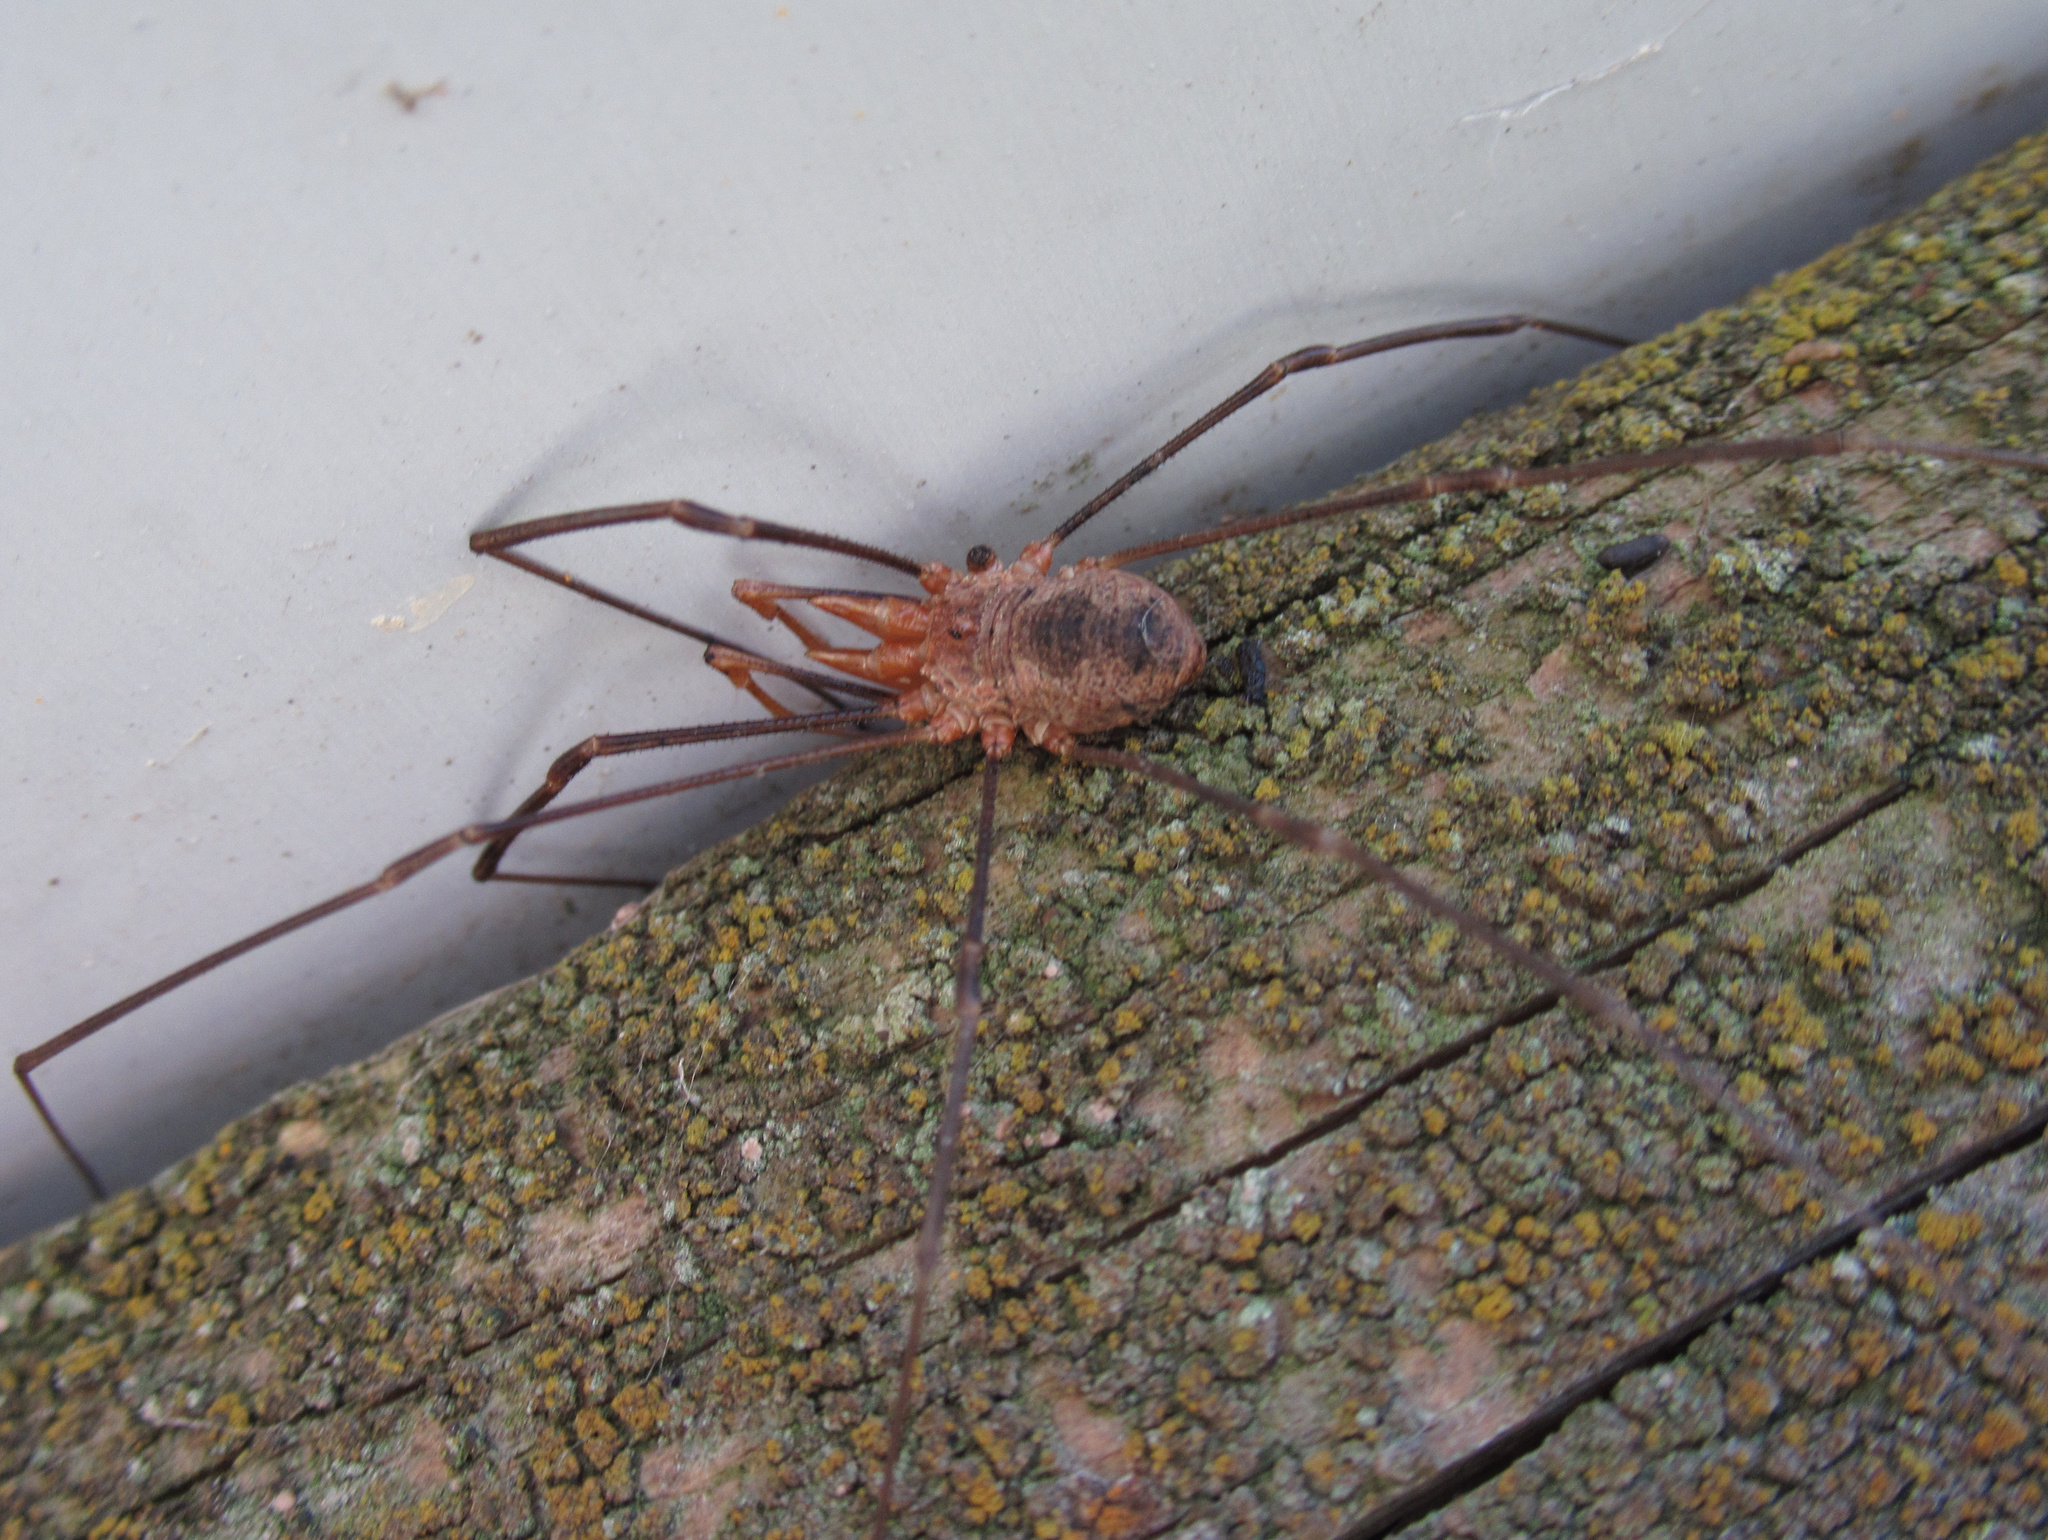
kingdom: Animalia
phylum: Arthropoda
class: Arachnida
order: Opiliones
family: Phalangiidae
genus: Phalangium
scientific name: Phalangium opilio
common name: Daddy longleg
